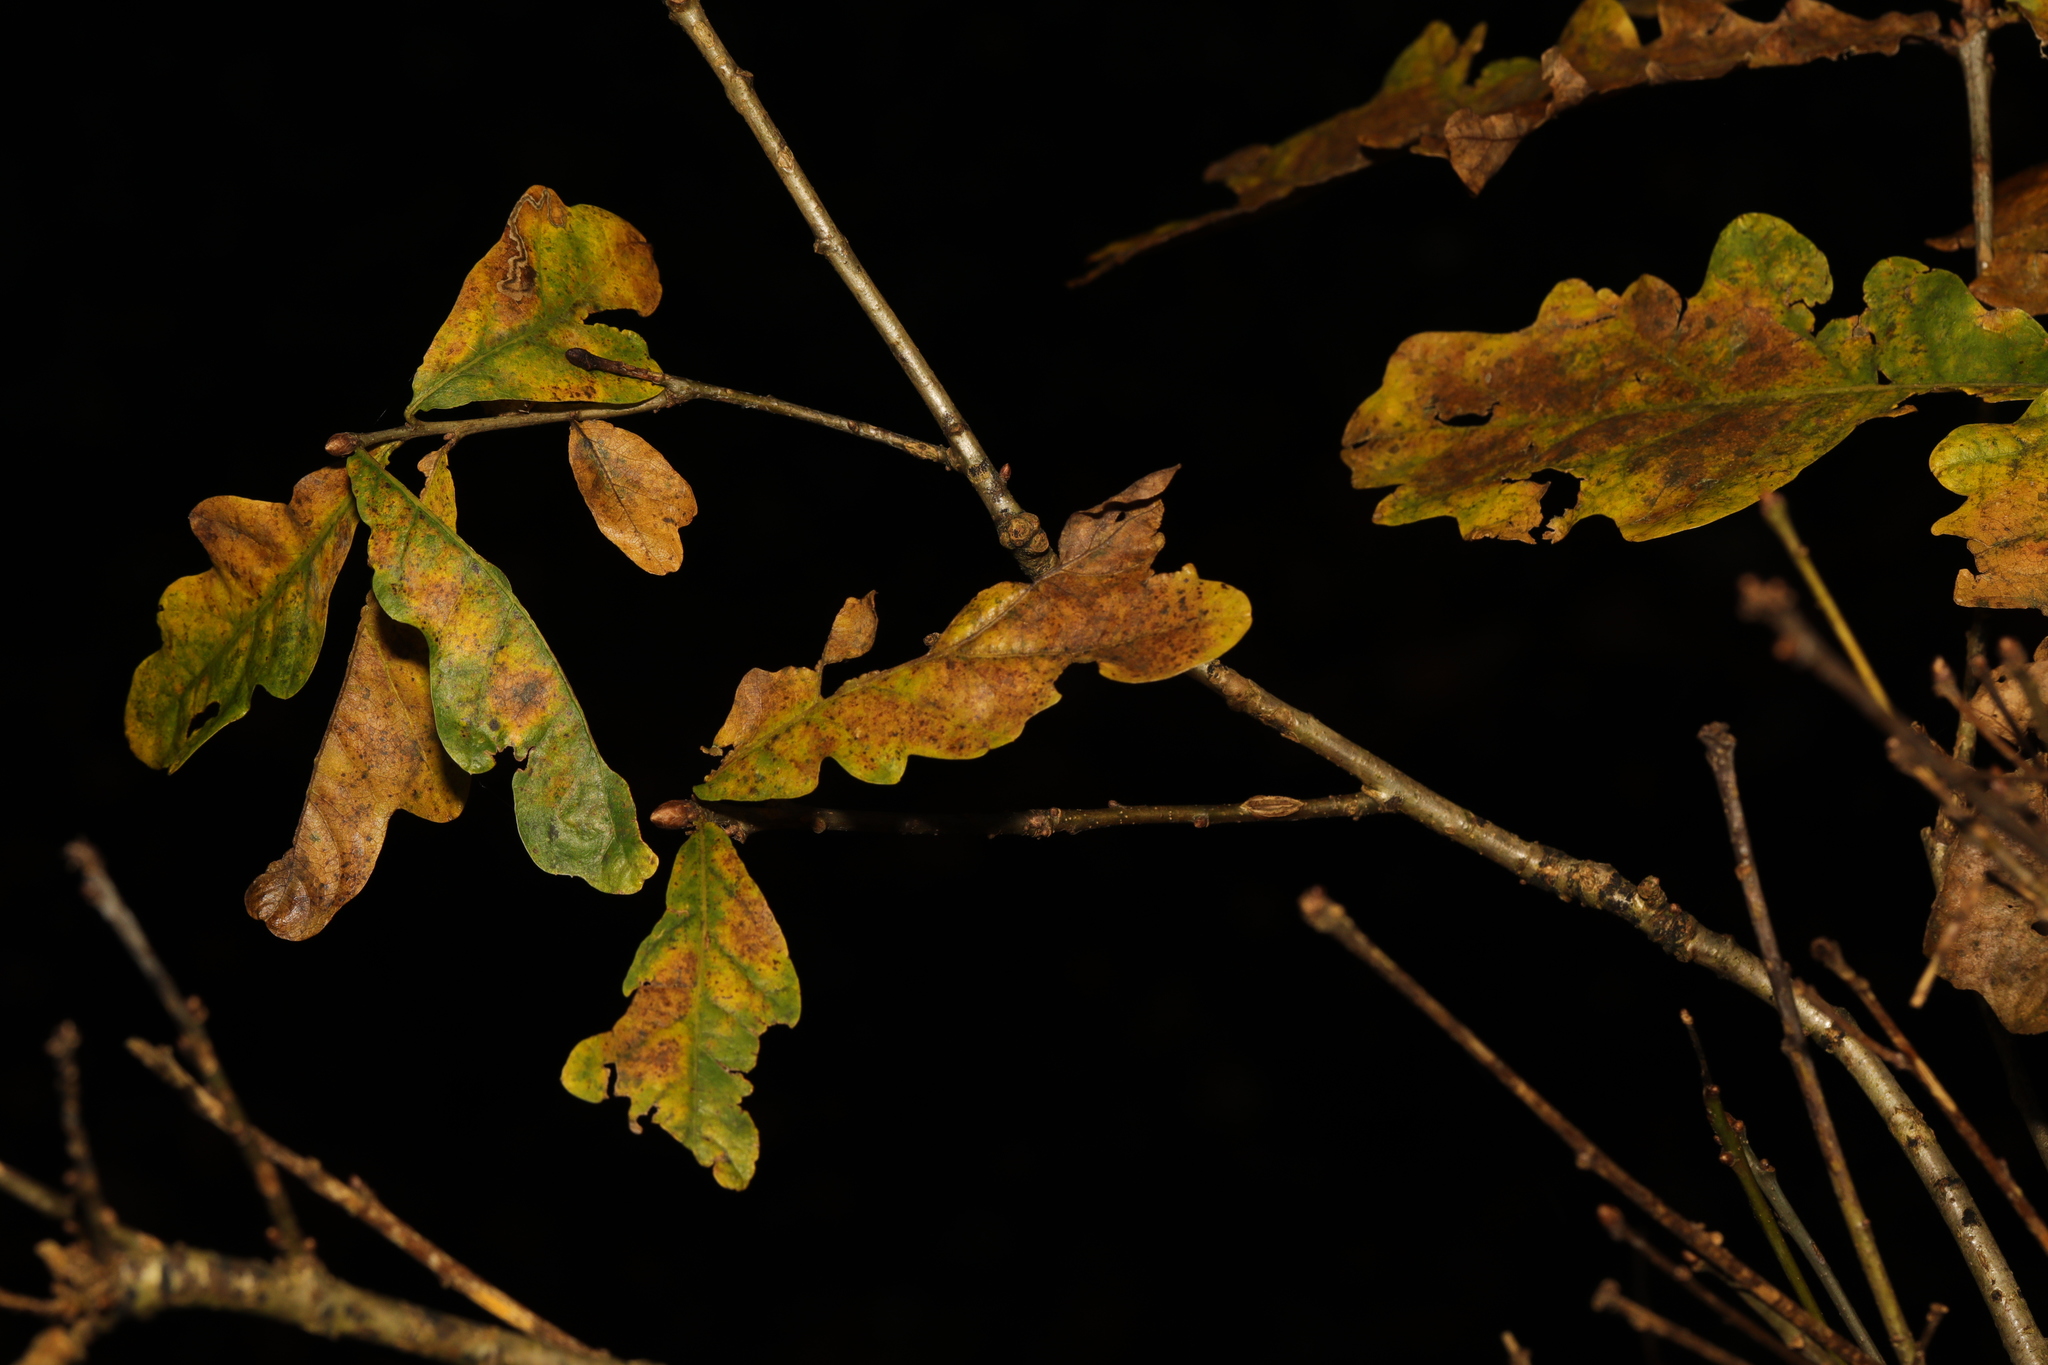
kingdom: Plantae
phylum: Tracheophyta
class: Magnoliopsida
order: Fagales
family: Fagaceae
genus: Quercus
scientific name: Quercus robur
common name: Pedunculate oak
